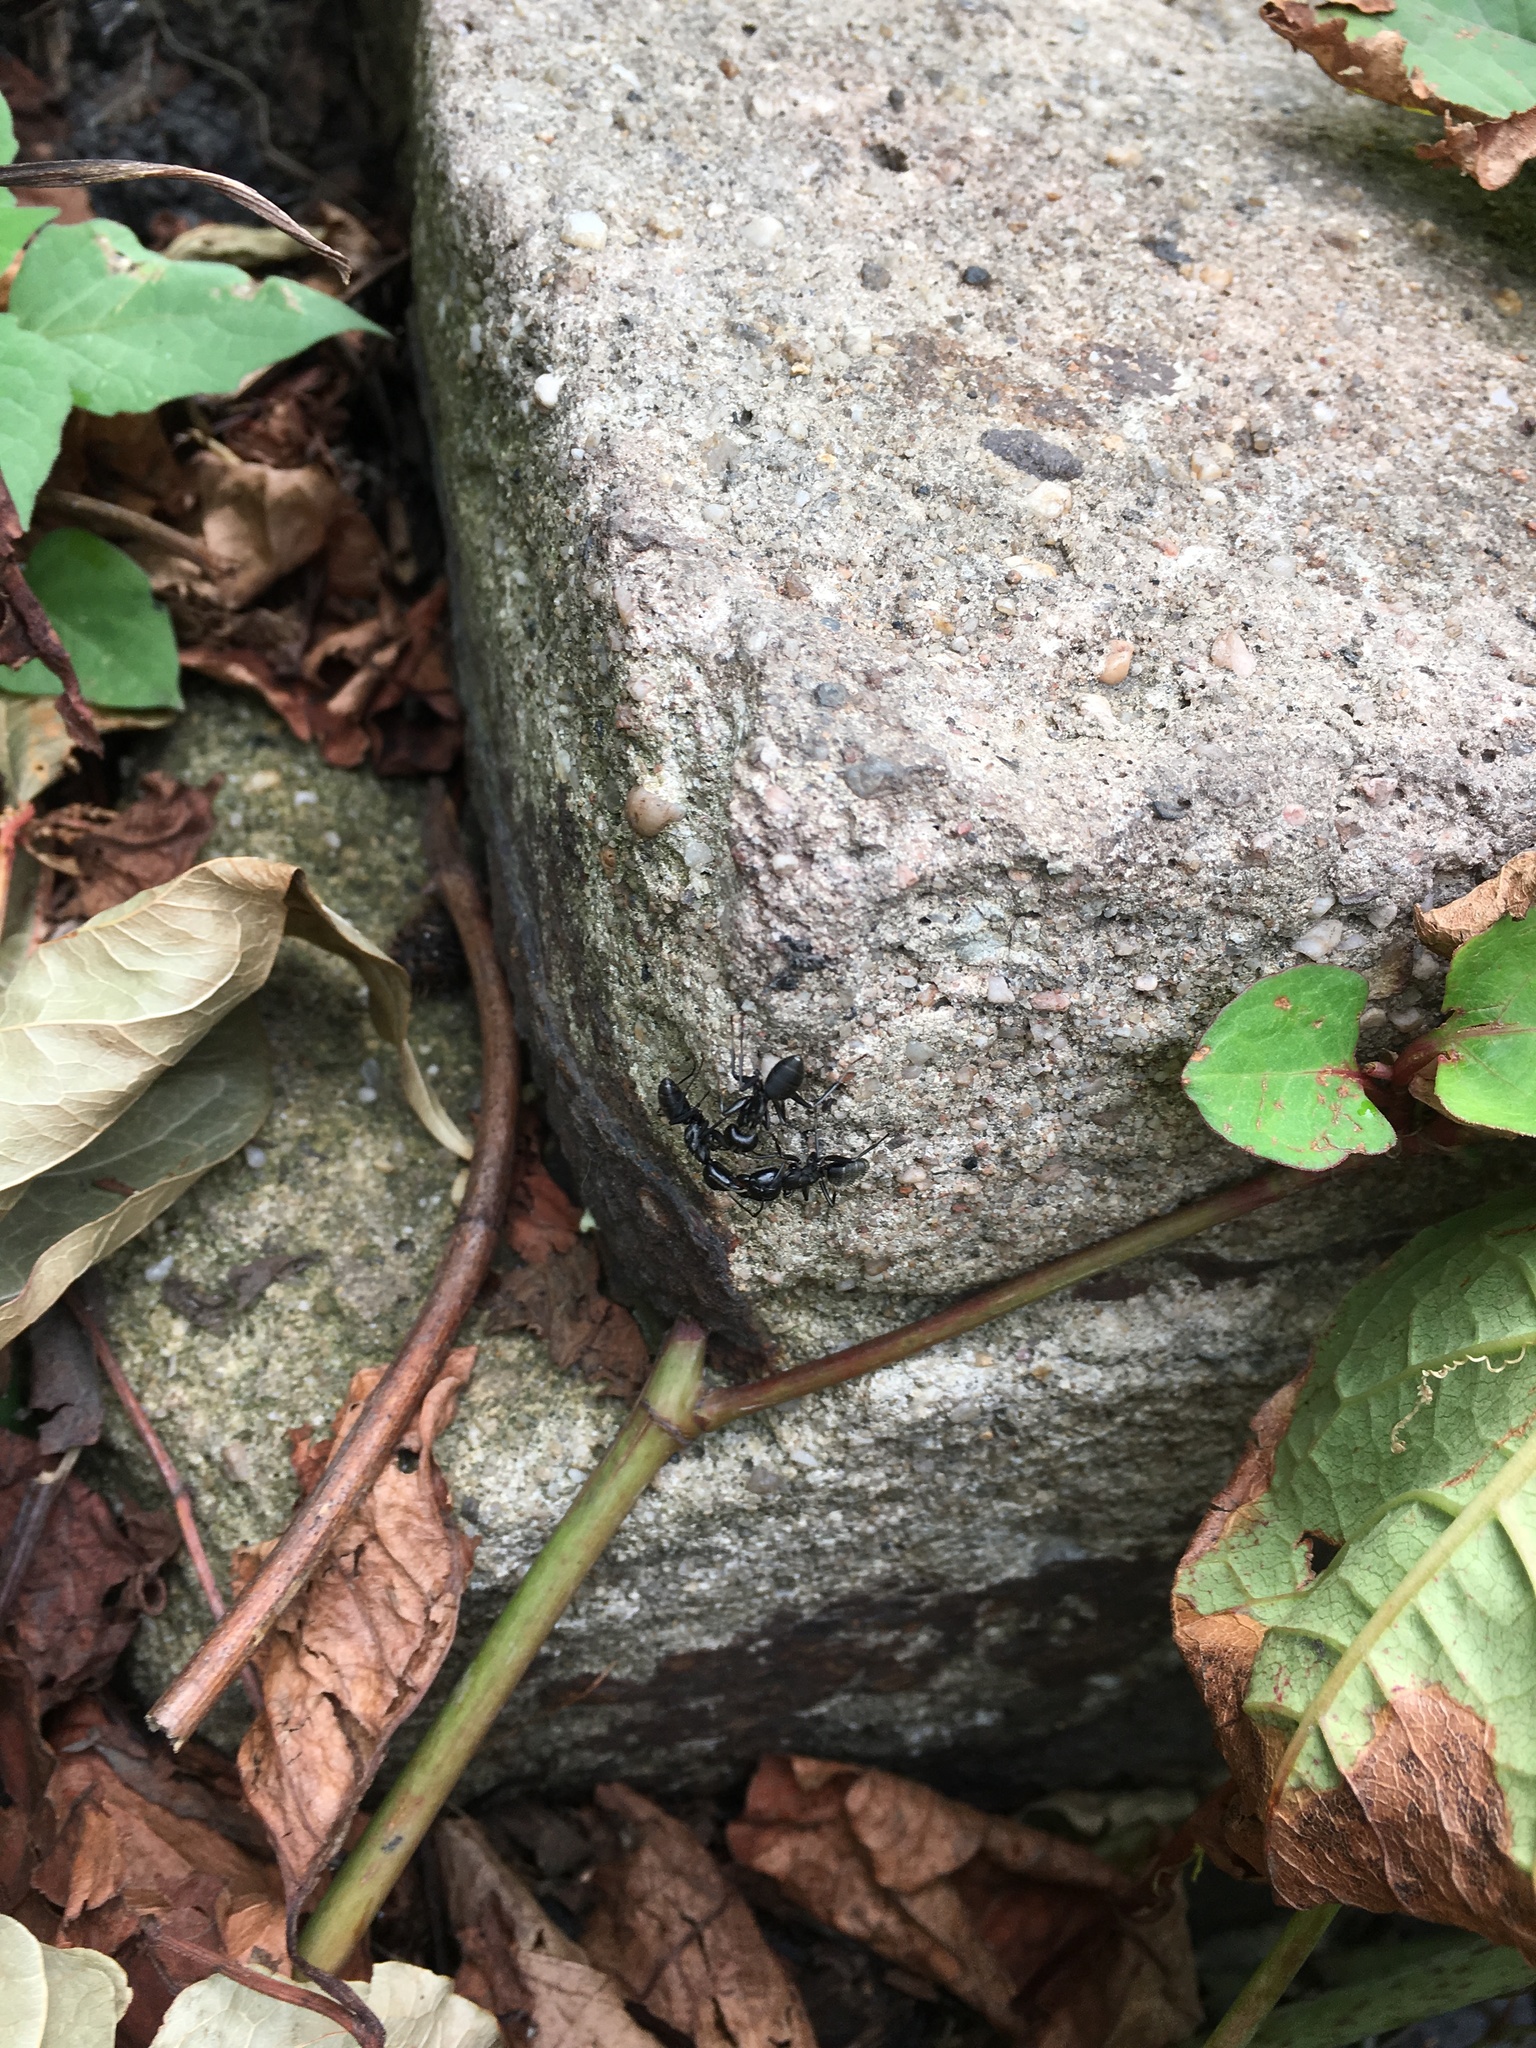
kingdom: Animalia
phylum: Arthropoda
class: Insecta
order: Hymenoptera
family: Formicidae
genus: Camponotus
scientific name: Camponotus pennsylvanicus
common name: Black carpenter ant
